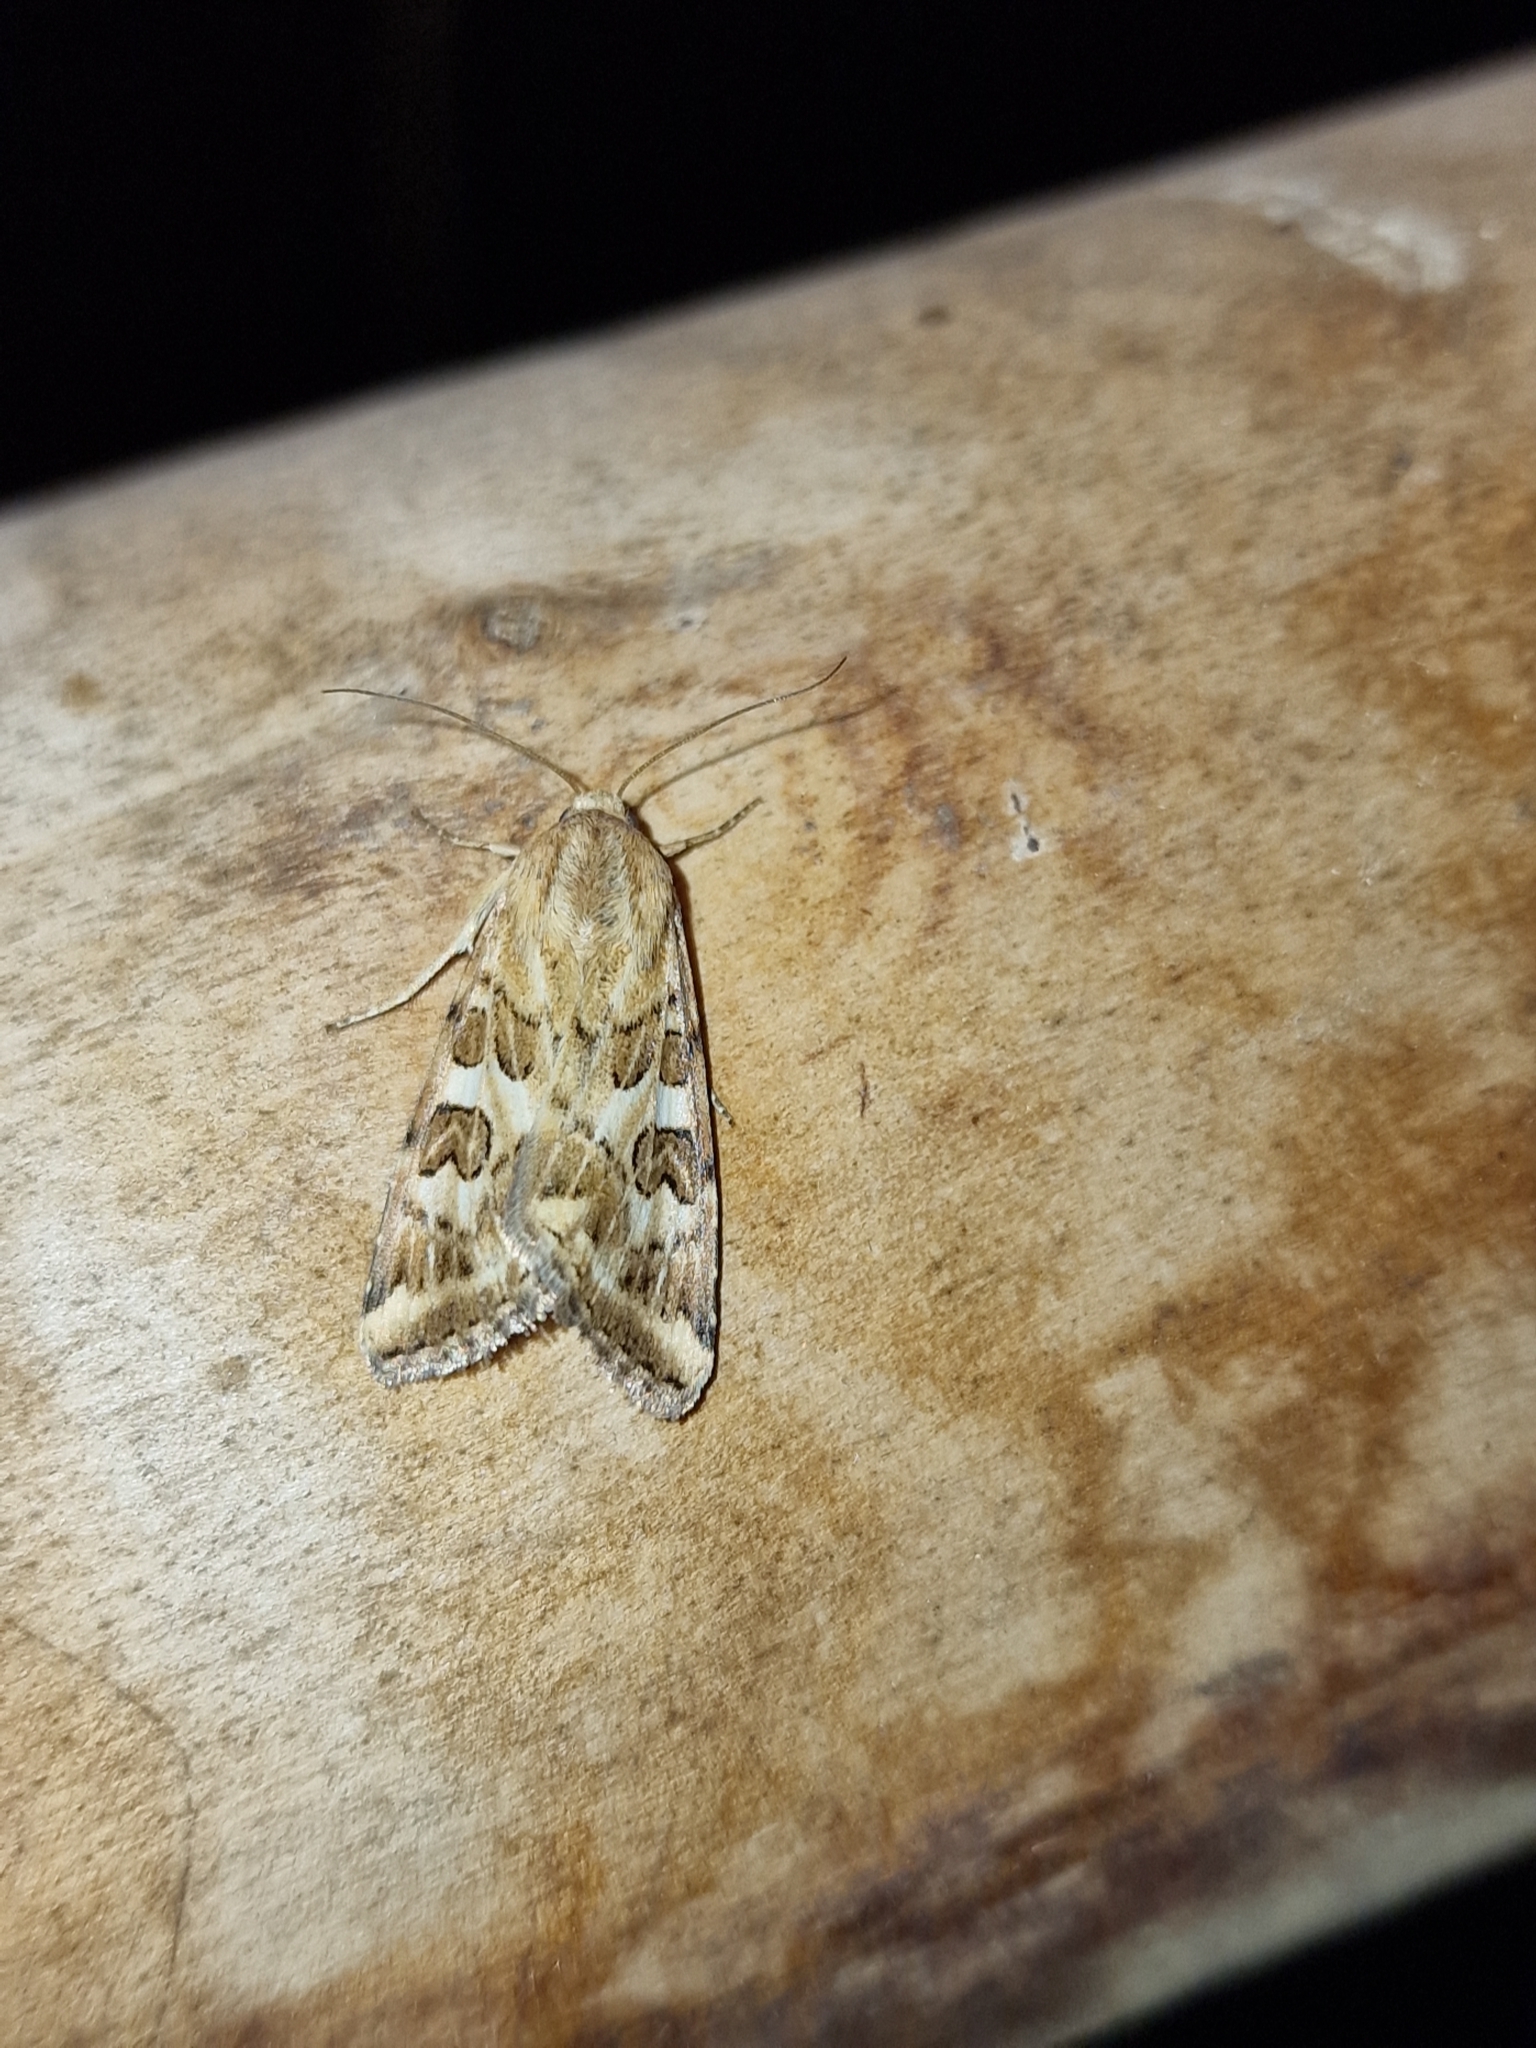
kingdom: Animalia
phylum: Arthropoda
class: Insecta
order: Lepidoptera
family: Noctuidae
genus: Protoschinia
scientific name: Protoschinia scutosa
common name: Spotted clover
